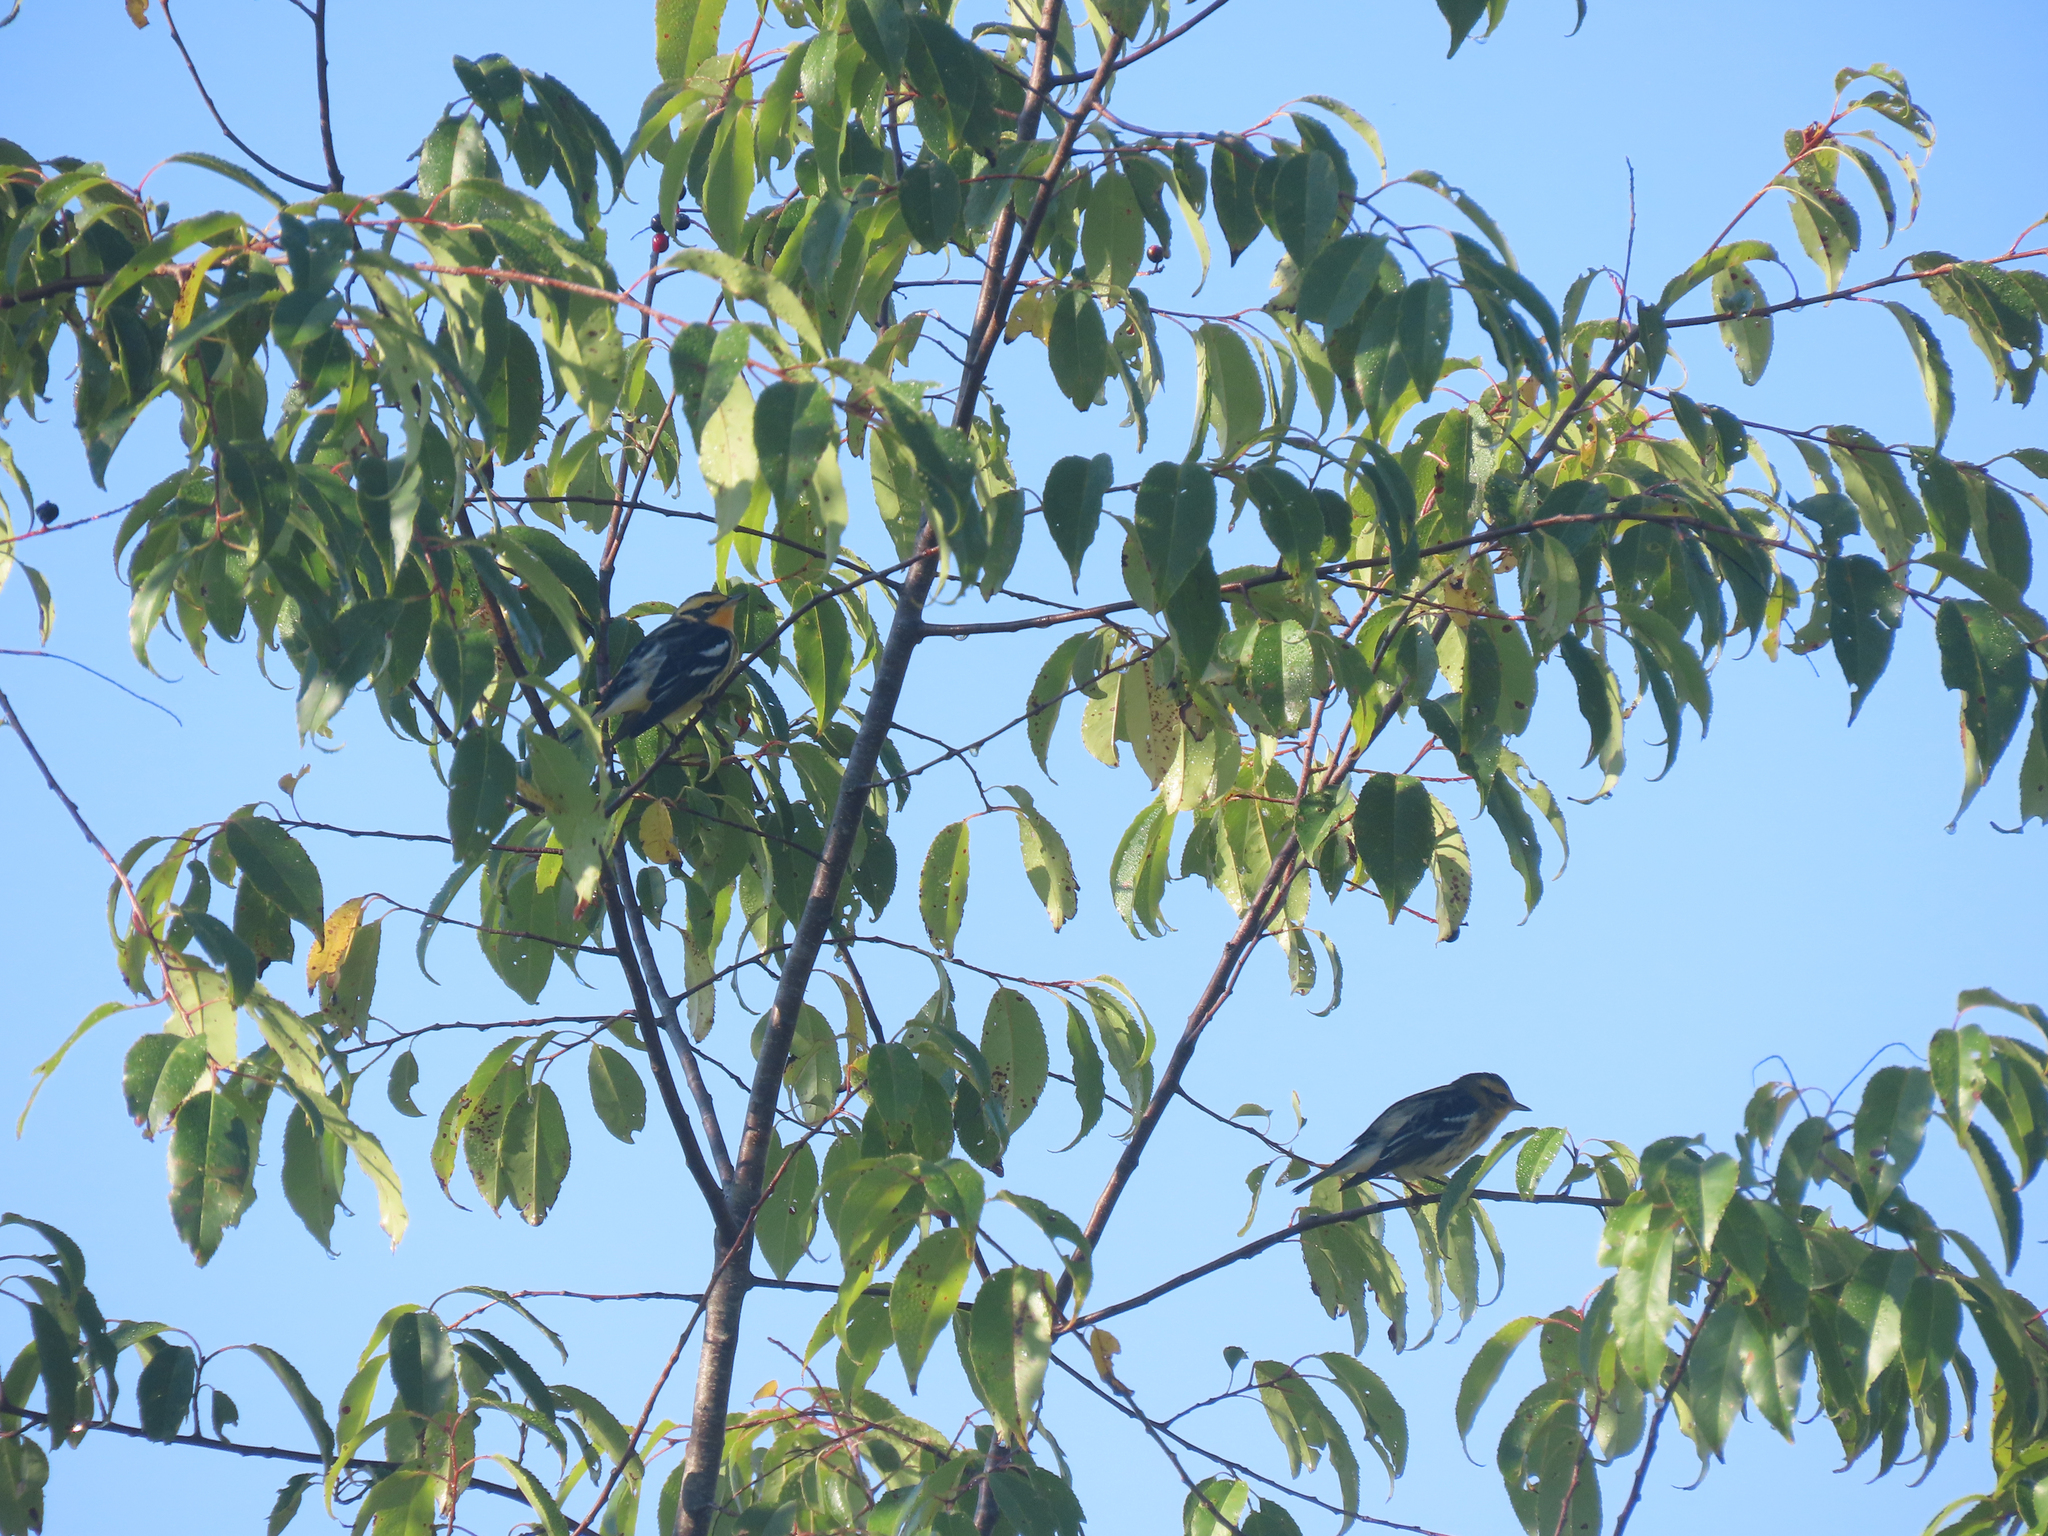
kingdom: Animalia
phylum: Chordata
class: Aves
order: Passeriformes
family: Parulidae
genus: Setophaga
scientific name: Setophaga fusca
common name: Blackburnian warbler
